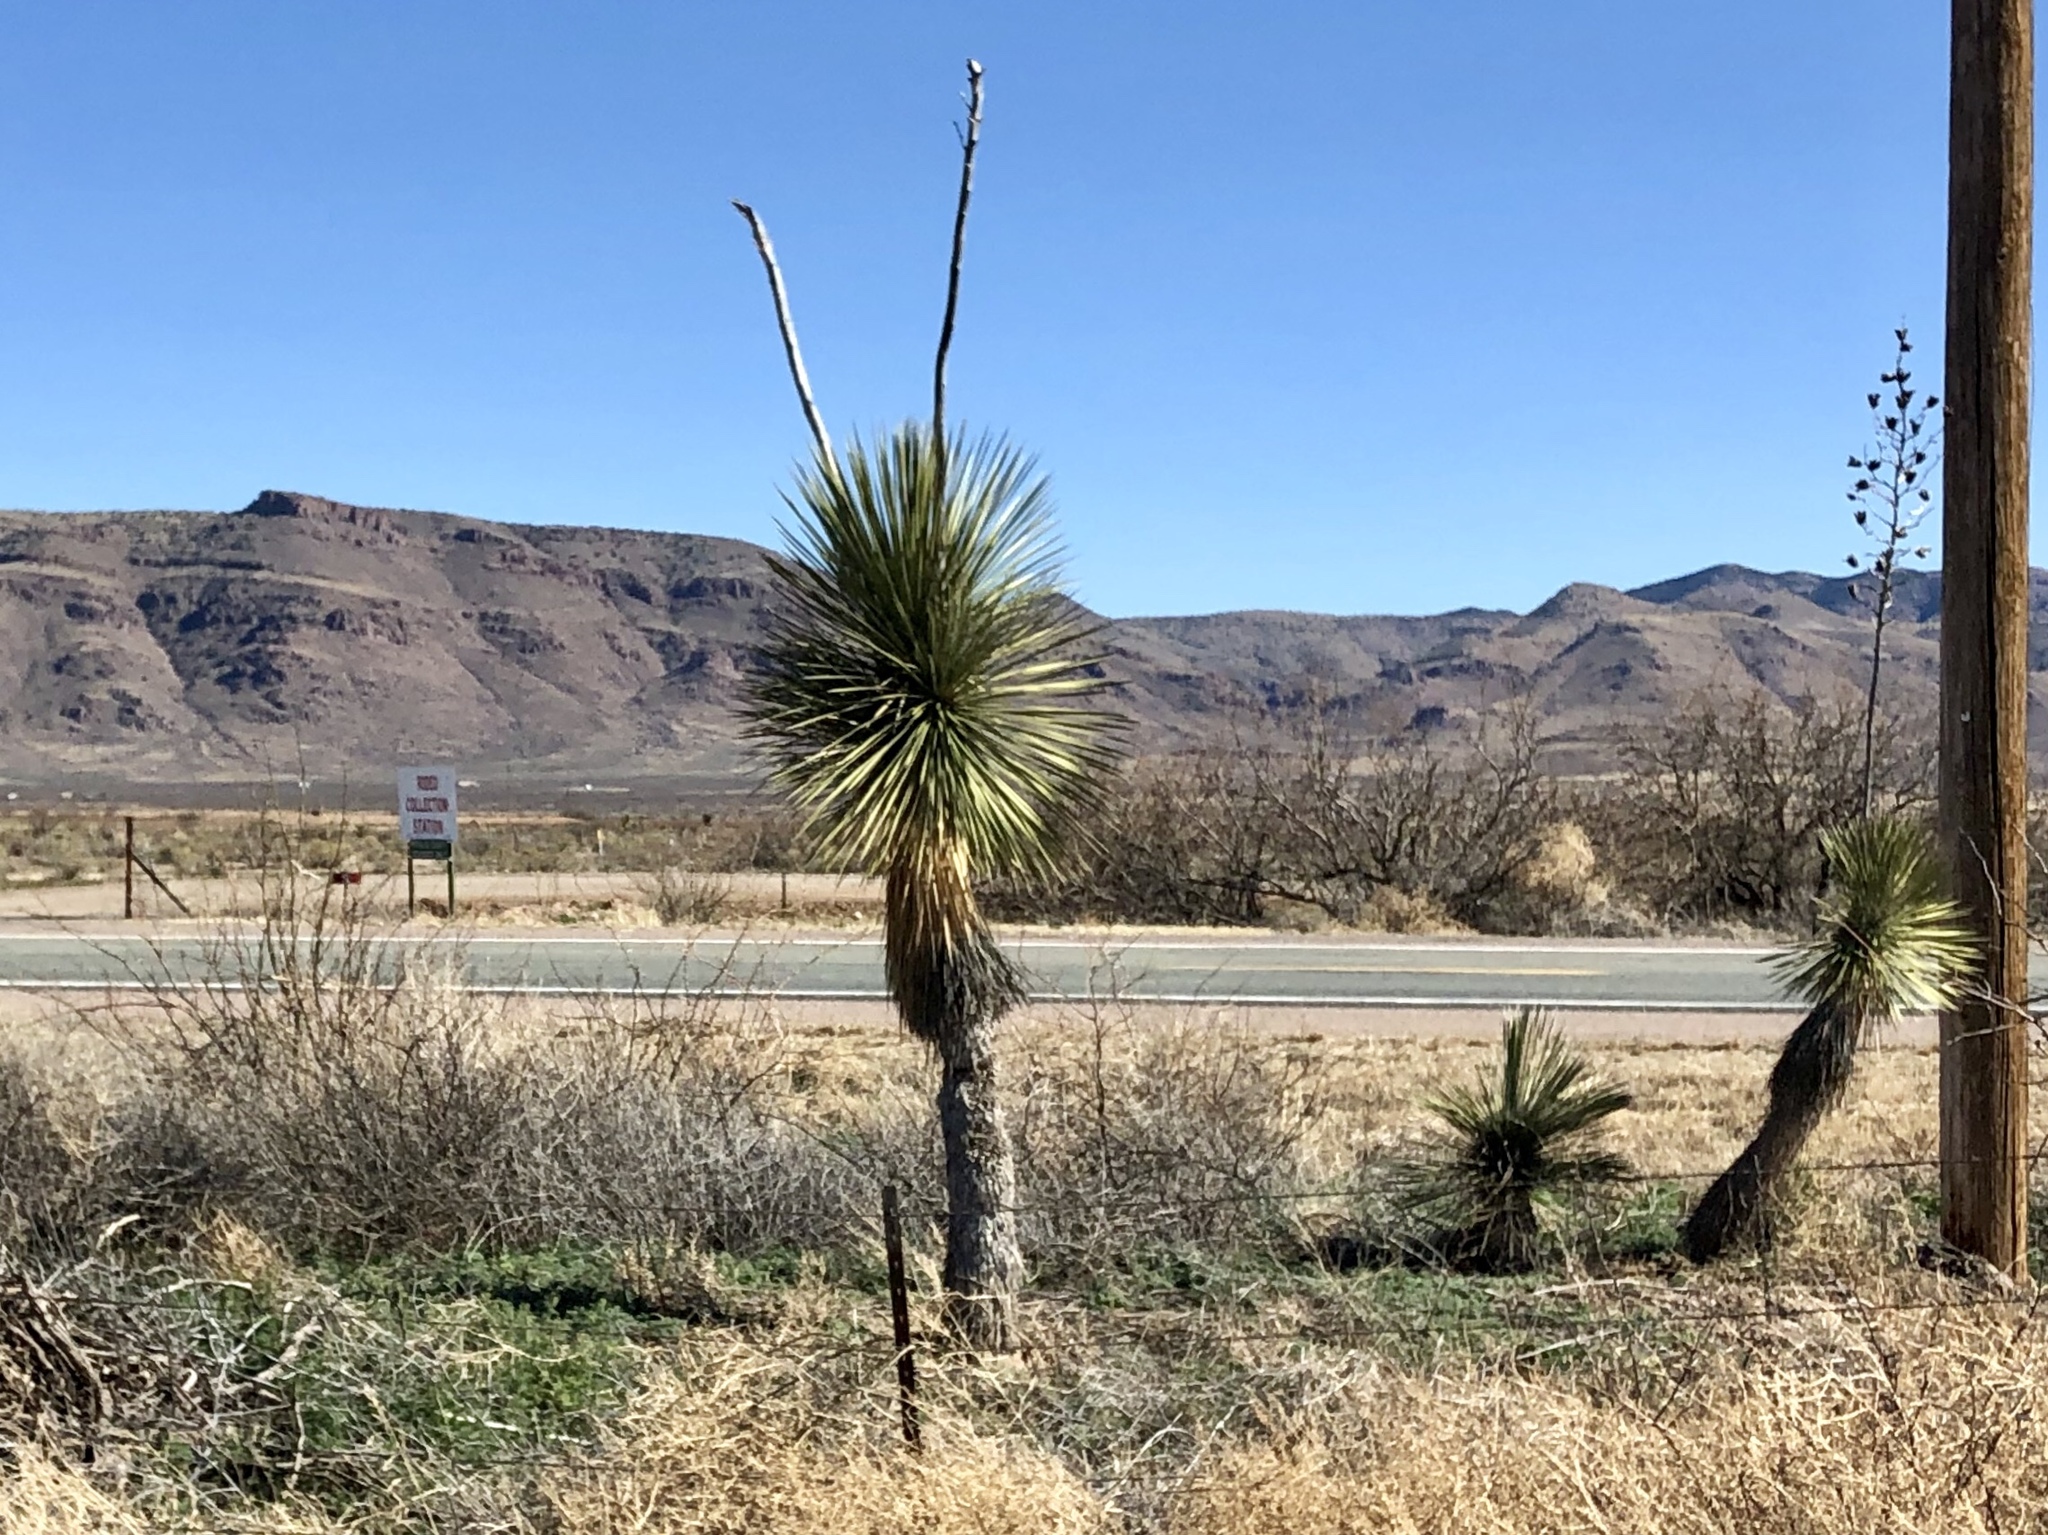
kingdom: Plantae
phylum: Tracheophyta
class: Liliopsida
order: Asparagales
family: Asparagaceae
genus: Yucca
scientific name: Yucca elata
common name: Palmella
